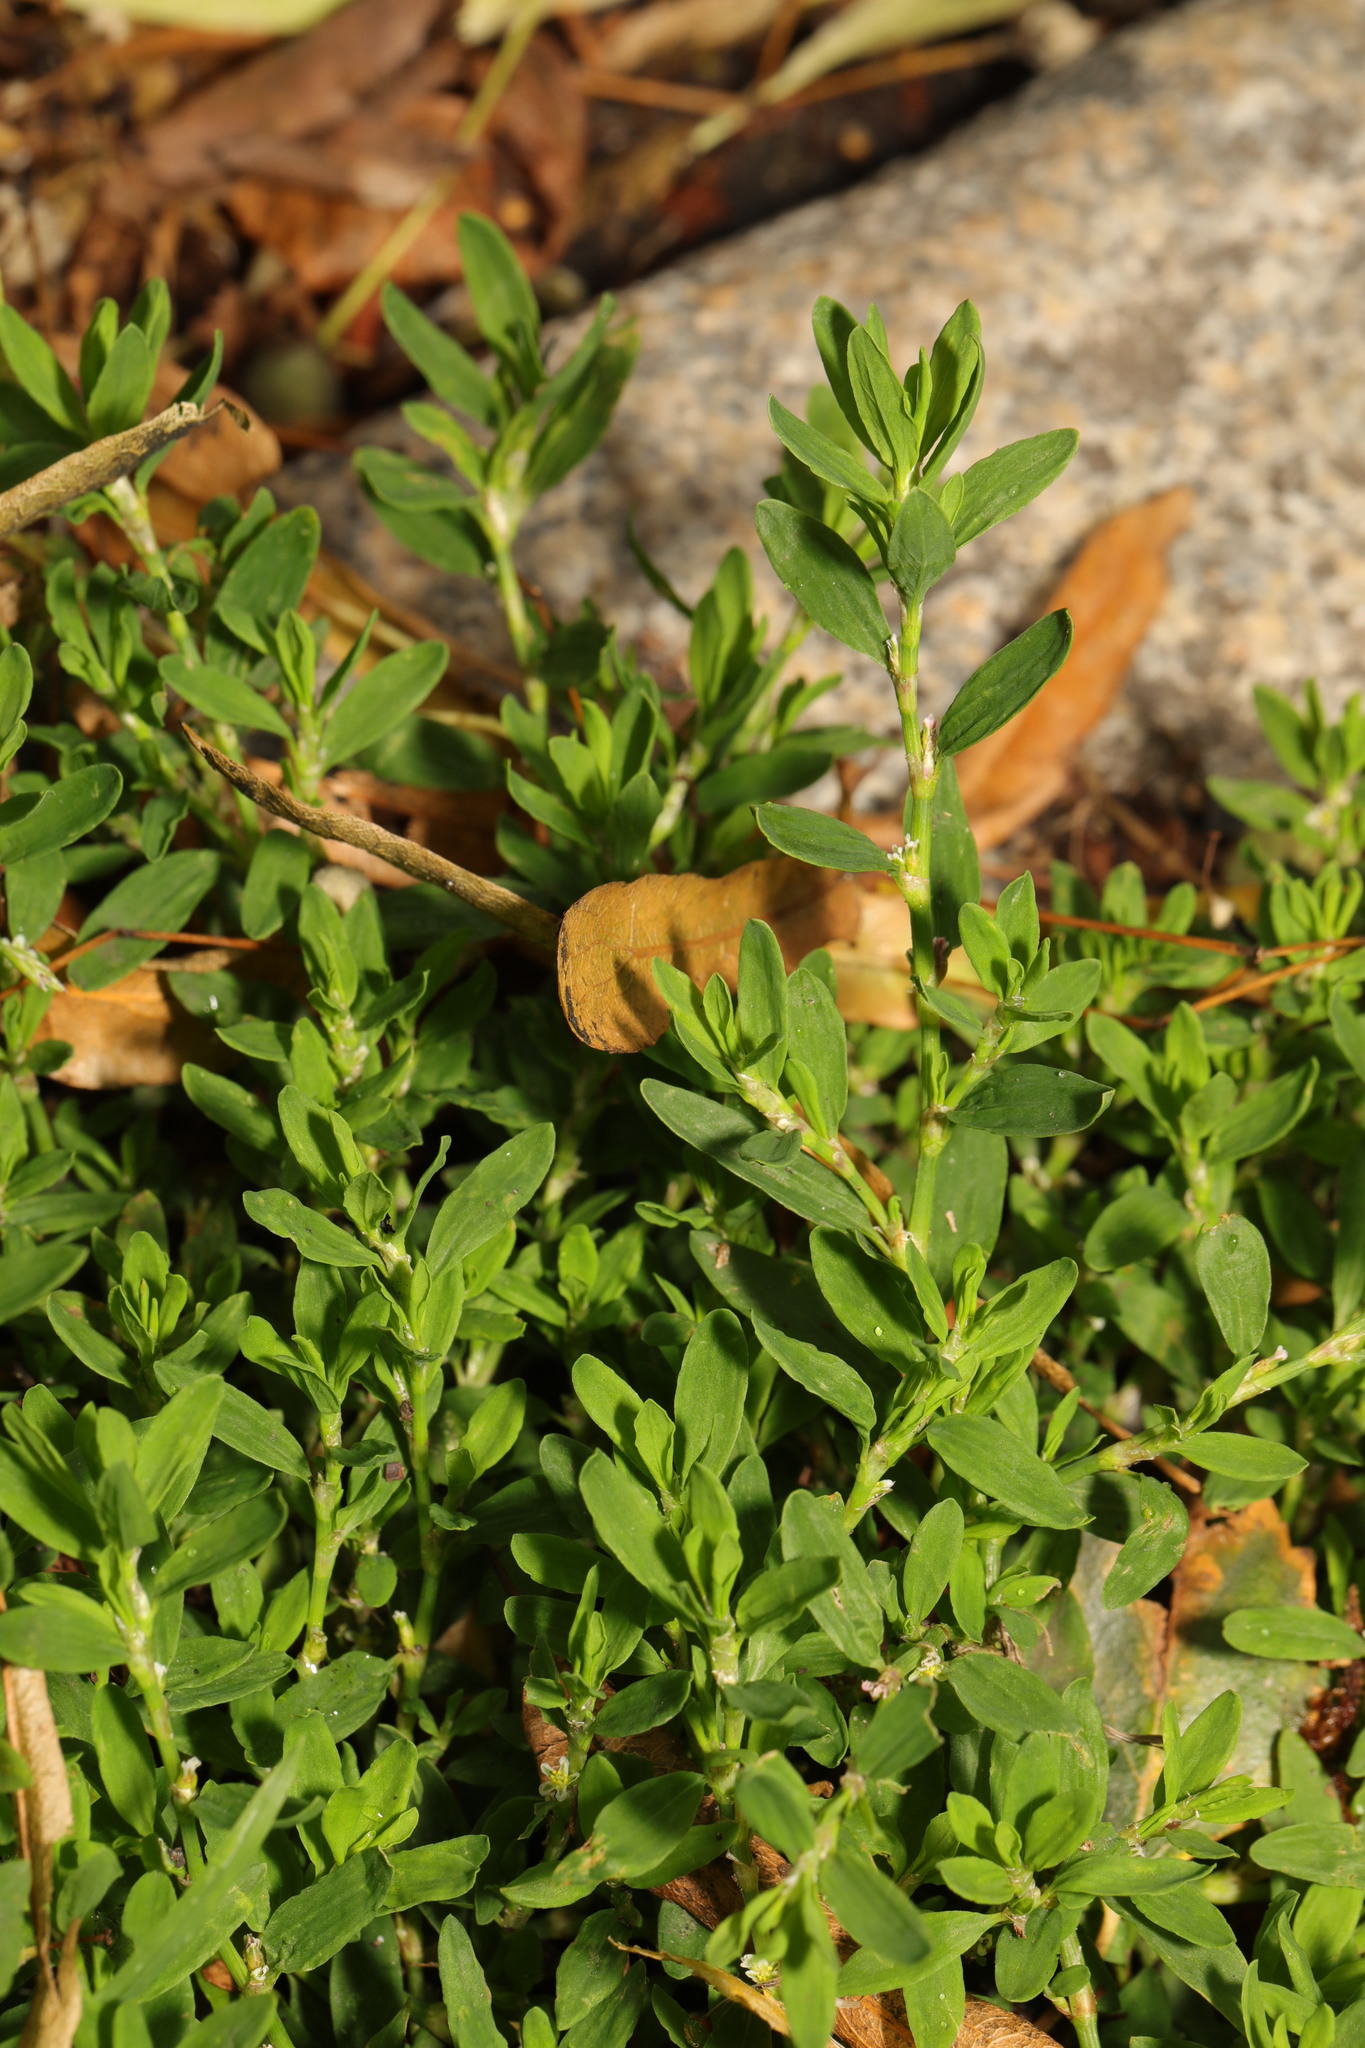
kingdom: Plantae
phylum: Tracheophyta
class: Magnoliopsida
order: Caryophyllales
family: Polygonaceae
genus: Polygonum
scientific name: Polygonum aviculare
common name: Prostrate knotweed
